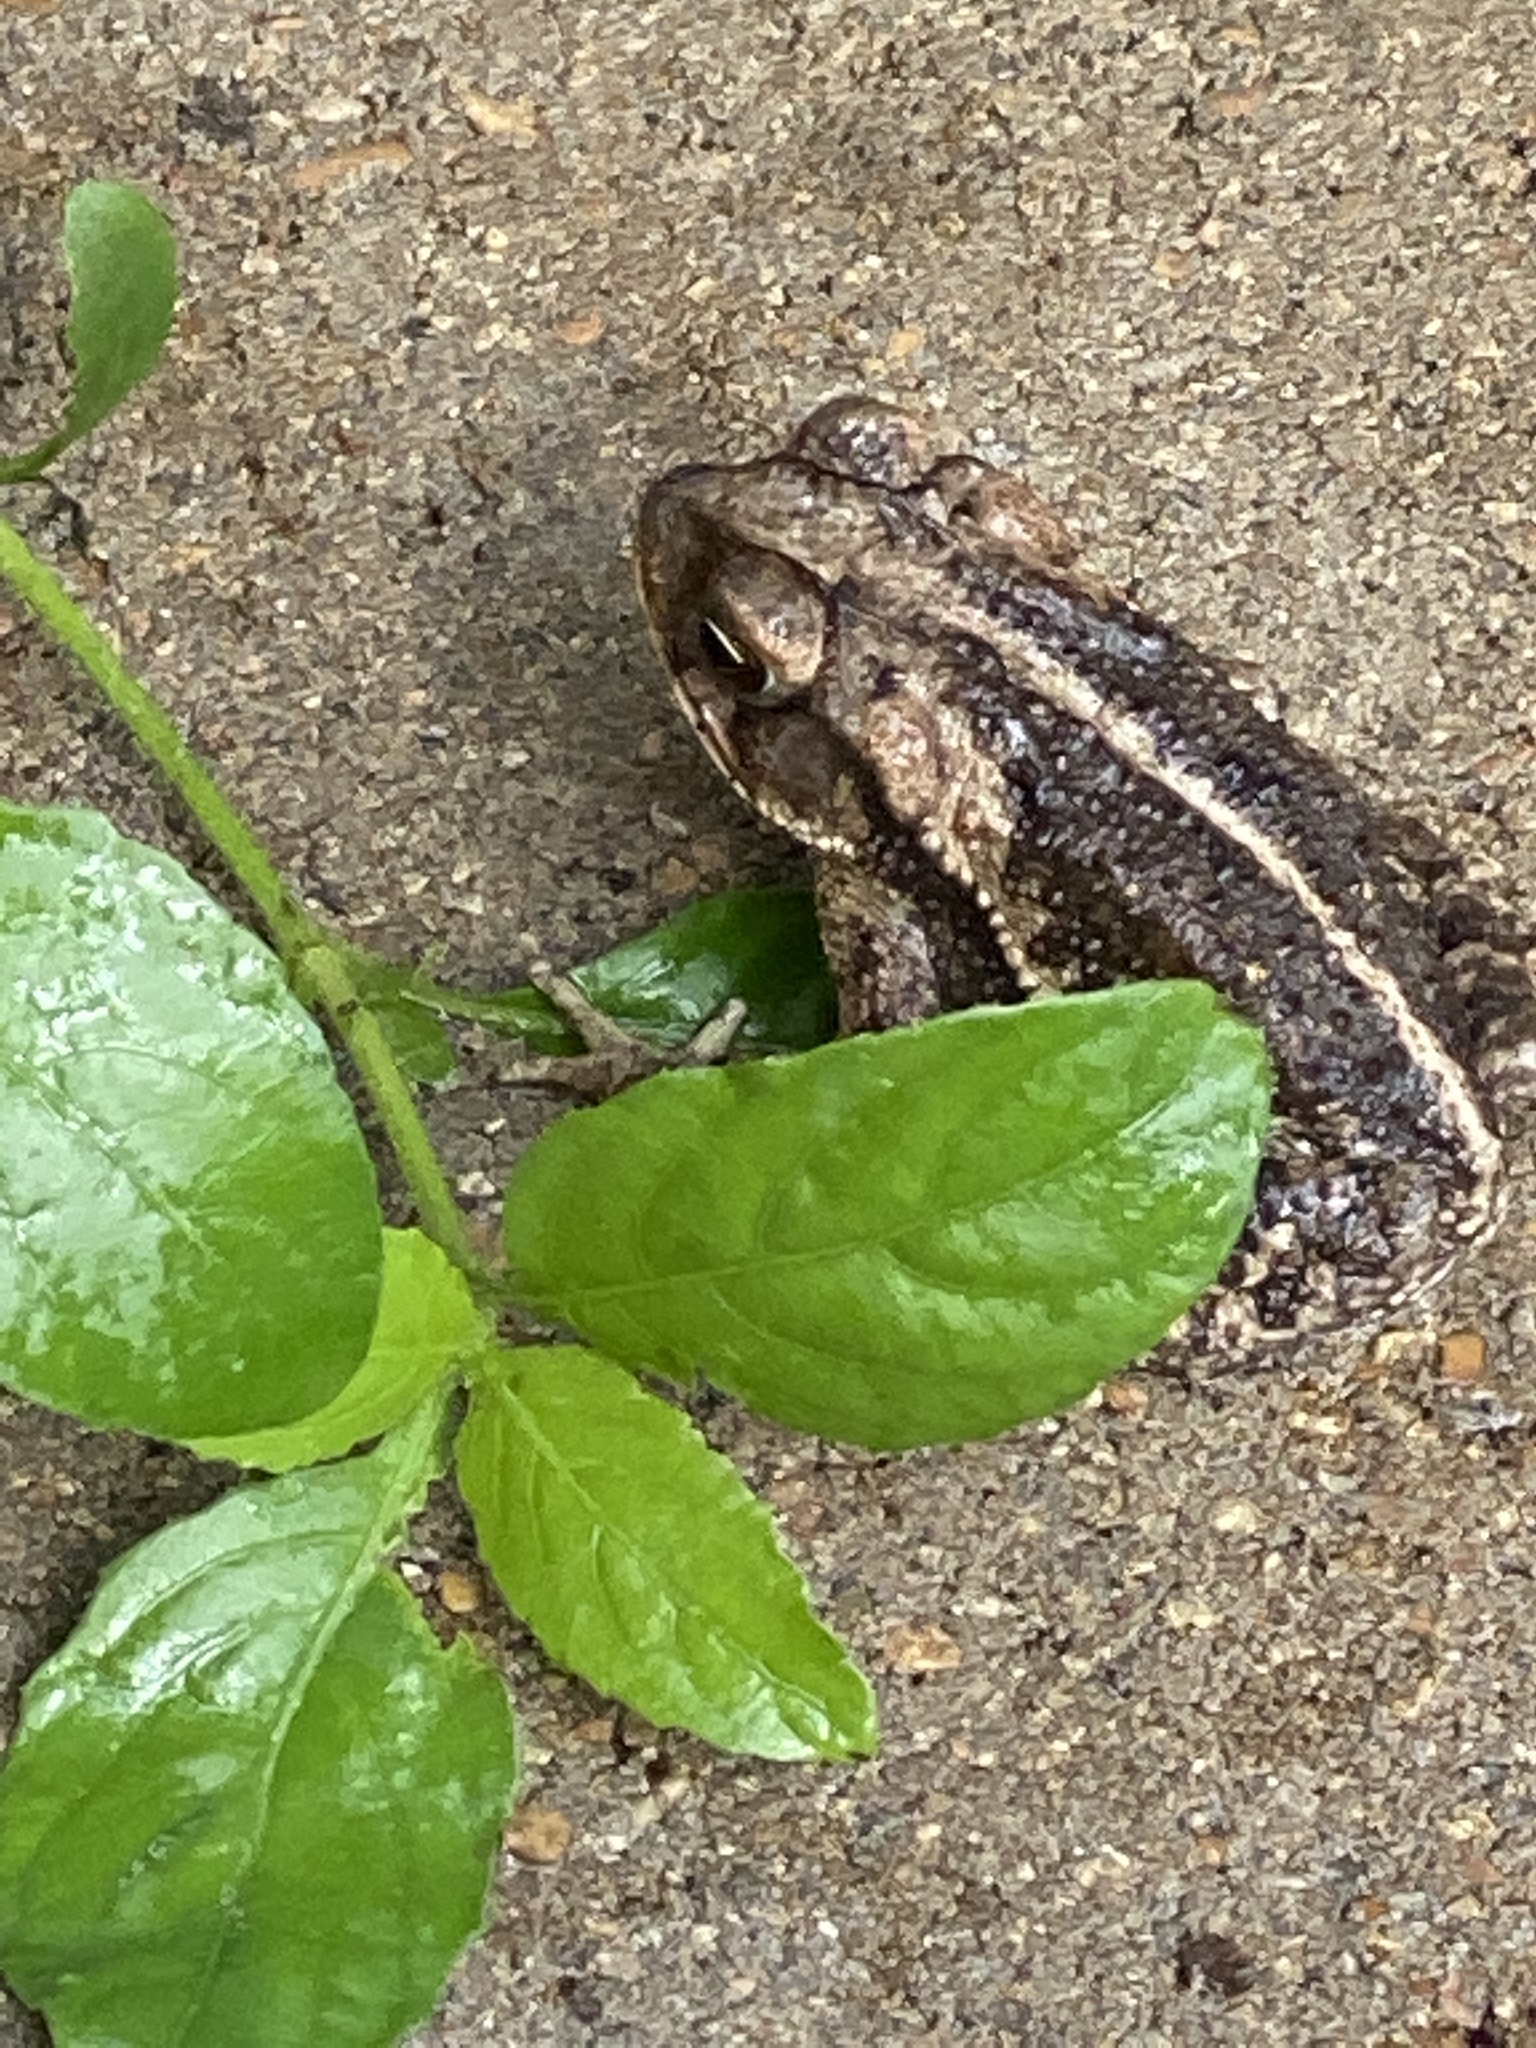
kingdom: Animalia
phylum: Chordata
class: Amphibia
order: Anura
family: Bufonidae
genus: Incilius
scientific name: Incilius nebulifer
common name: Gulf coast toad
